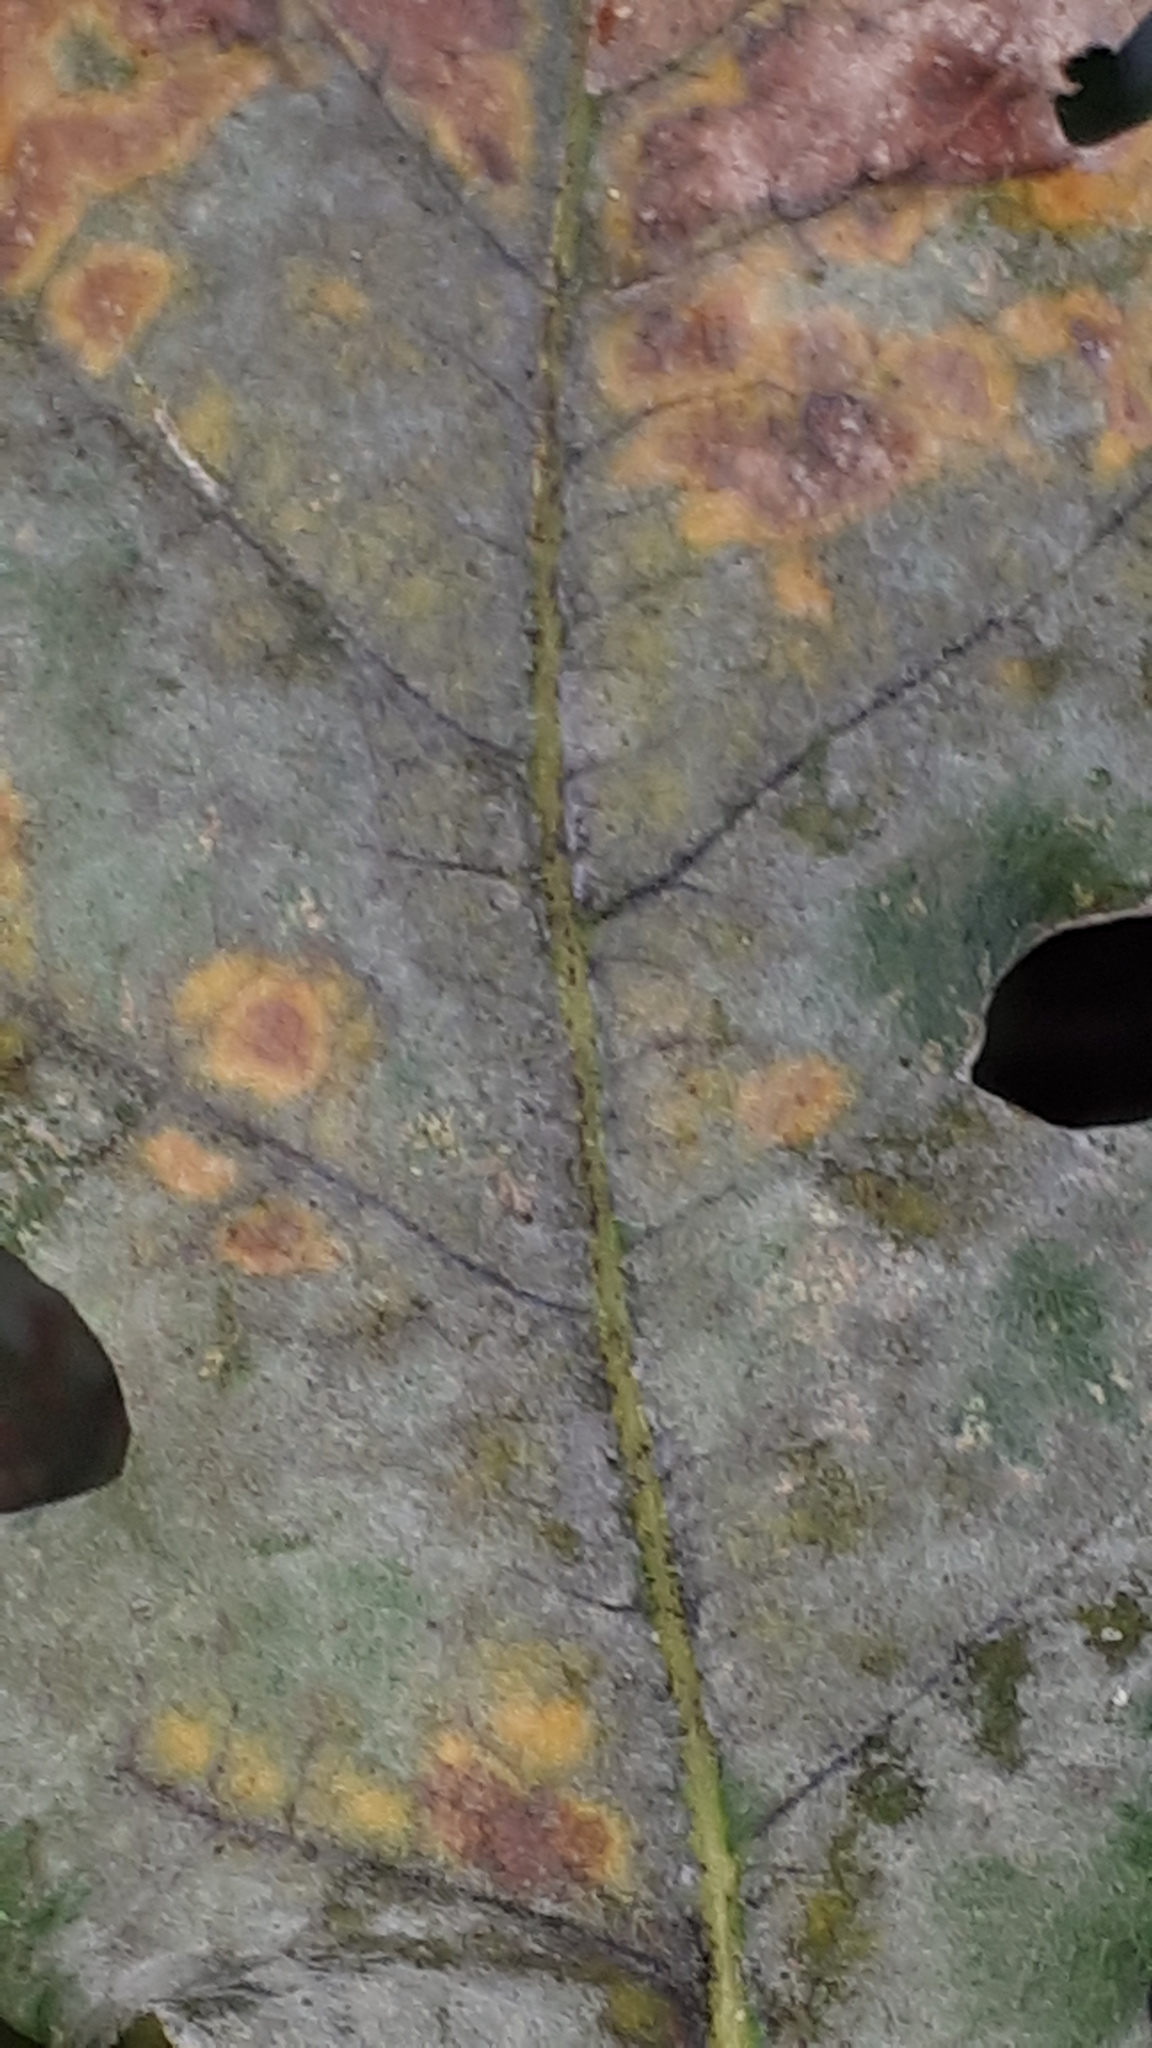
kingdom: Fungi
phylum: Ascomycota
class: Leotiomycetes
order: Helotiales
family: Erysiphaceae
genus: Erysiphe
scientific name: Erysiphe
